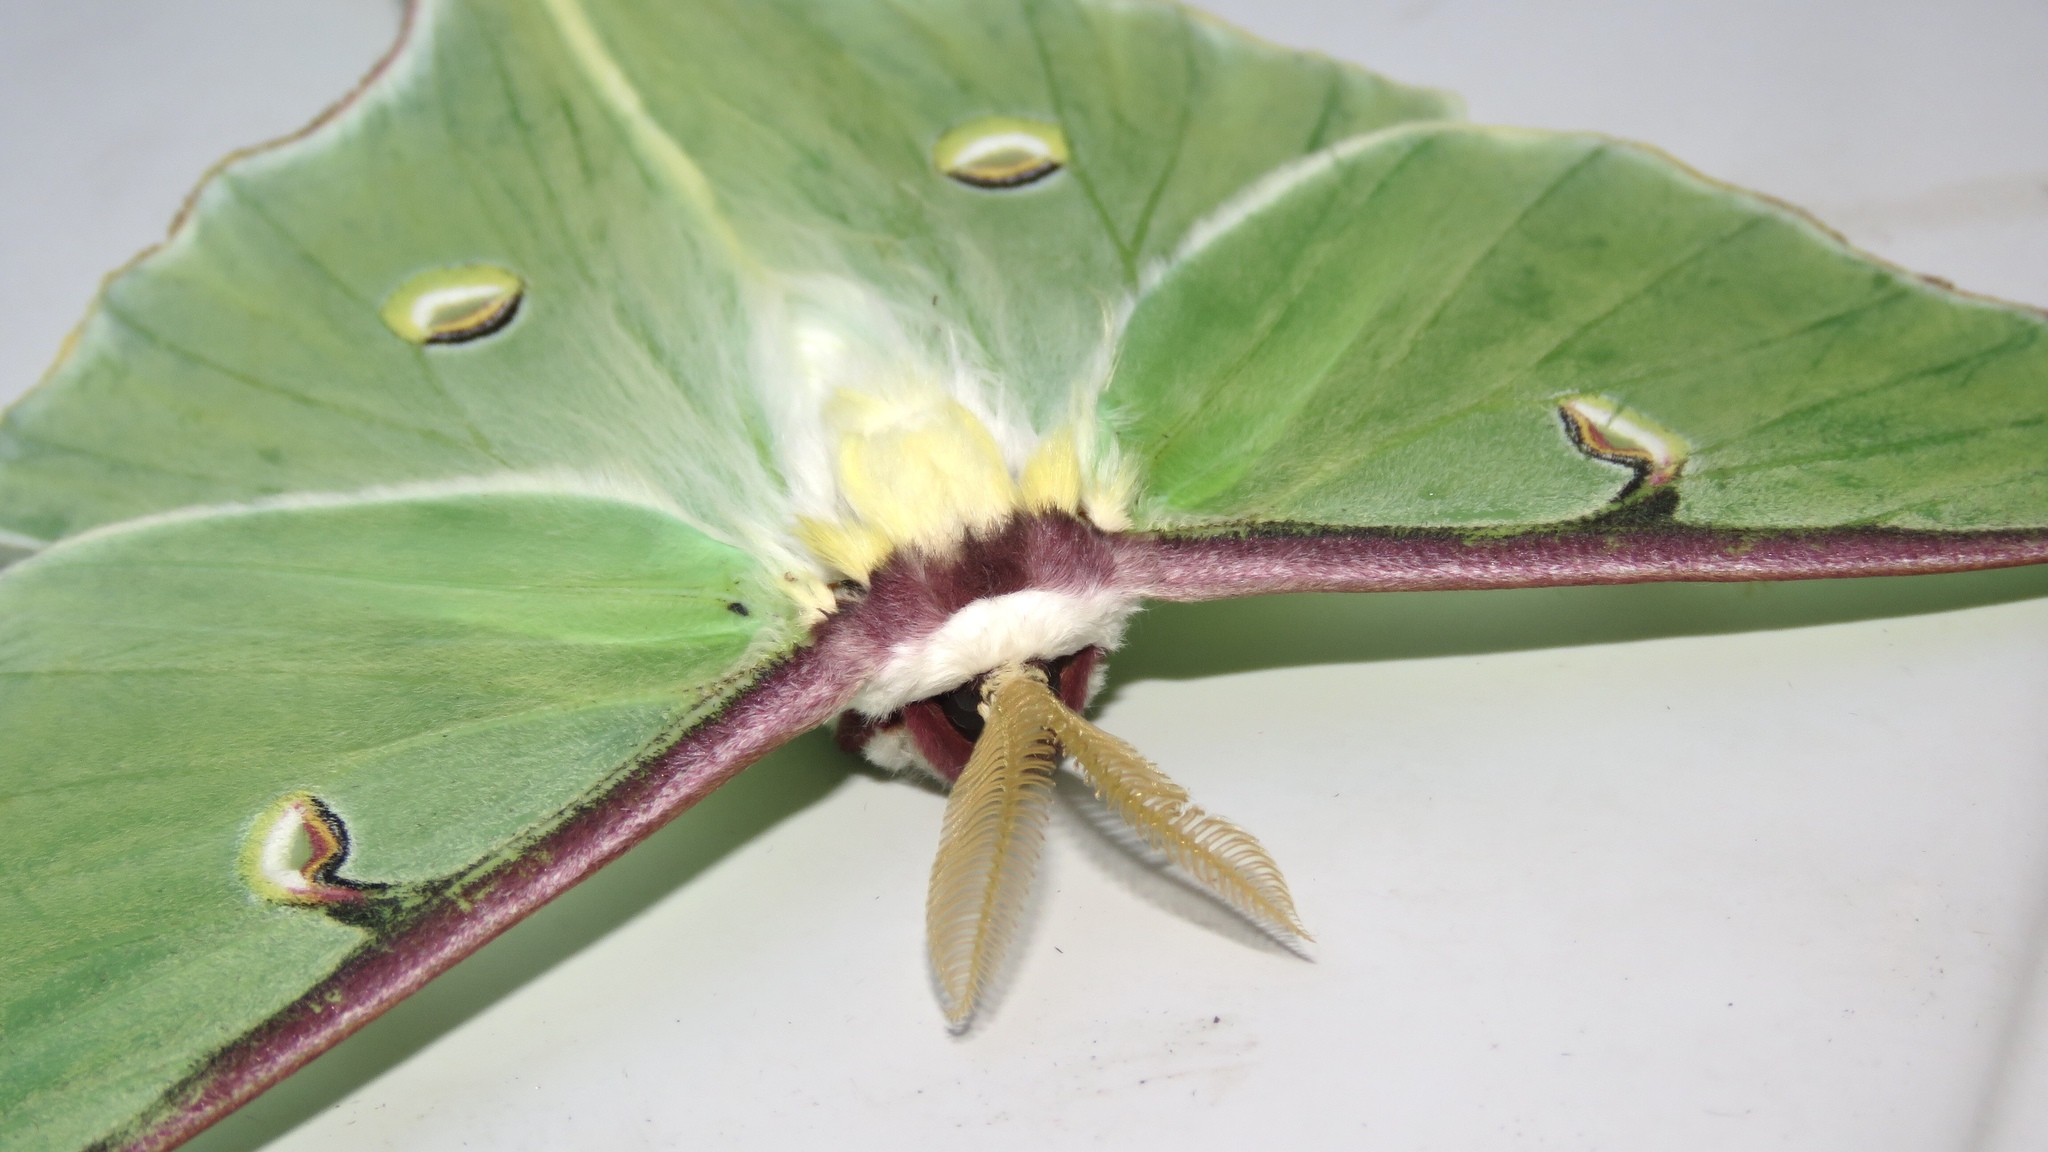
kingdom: Animalia
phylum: Arthropoda
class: Insecta
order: Lepidoptera
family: Saturniidae
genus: Actias
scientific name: Actias luna
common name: Luna moth
